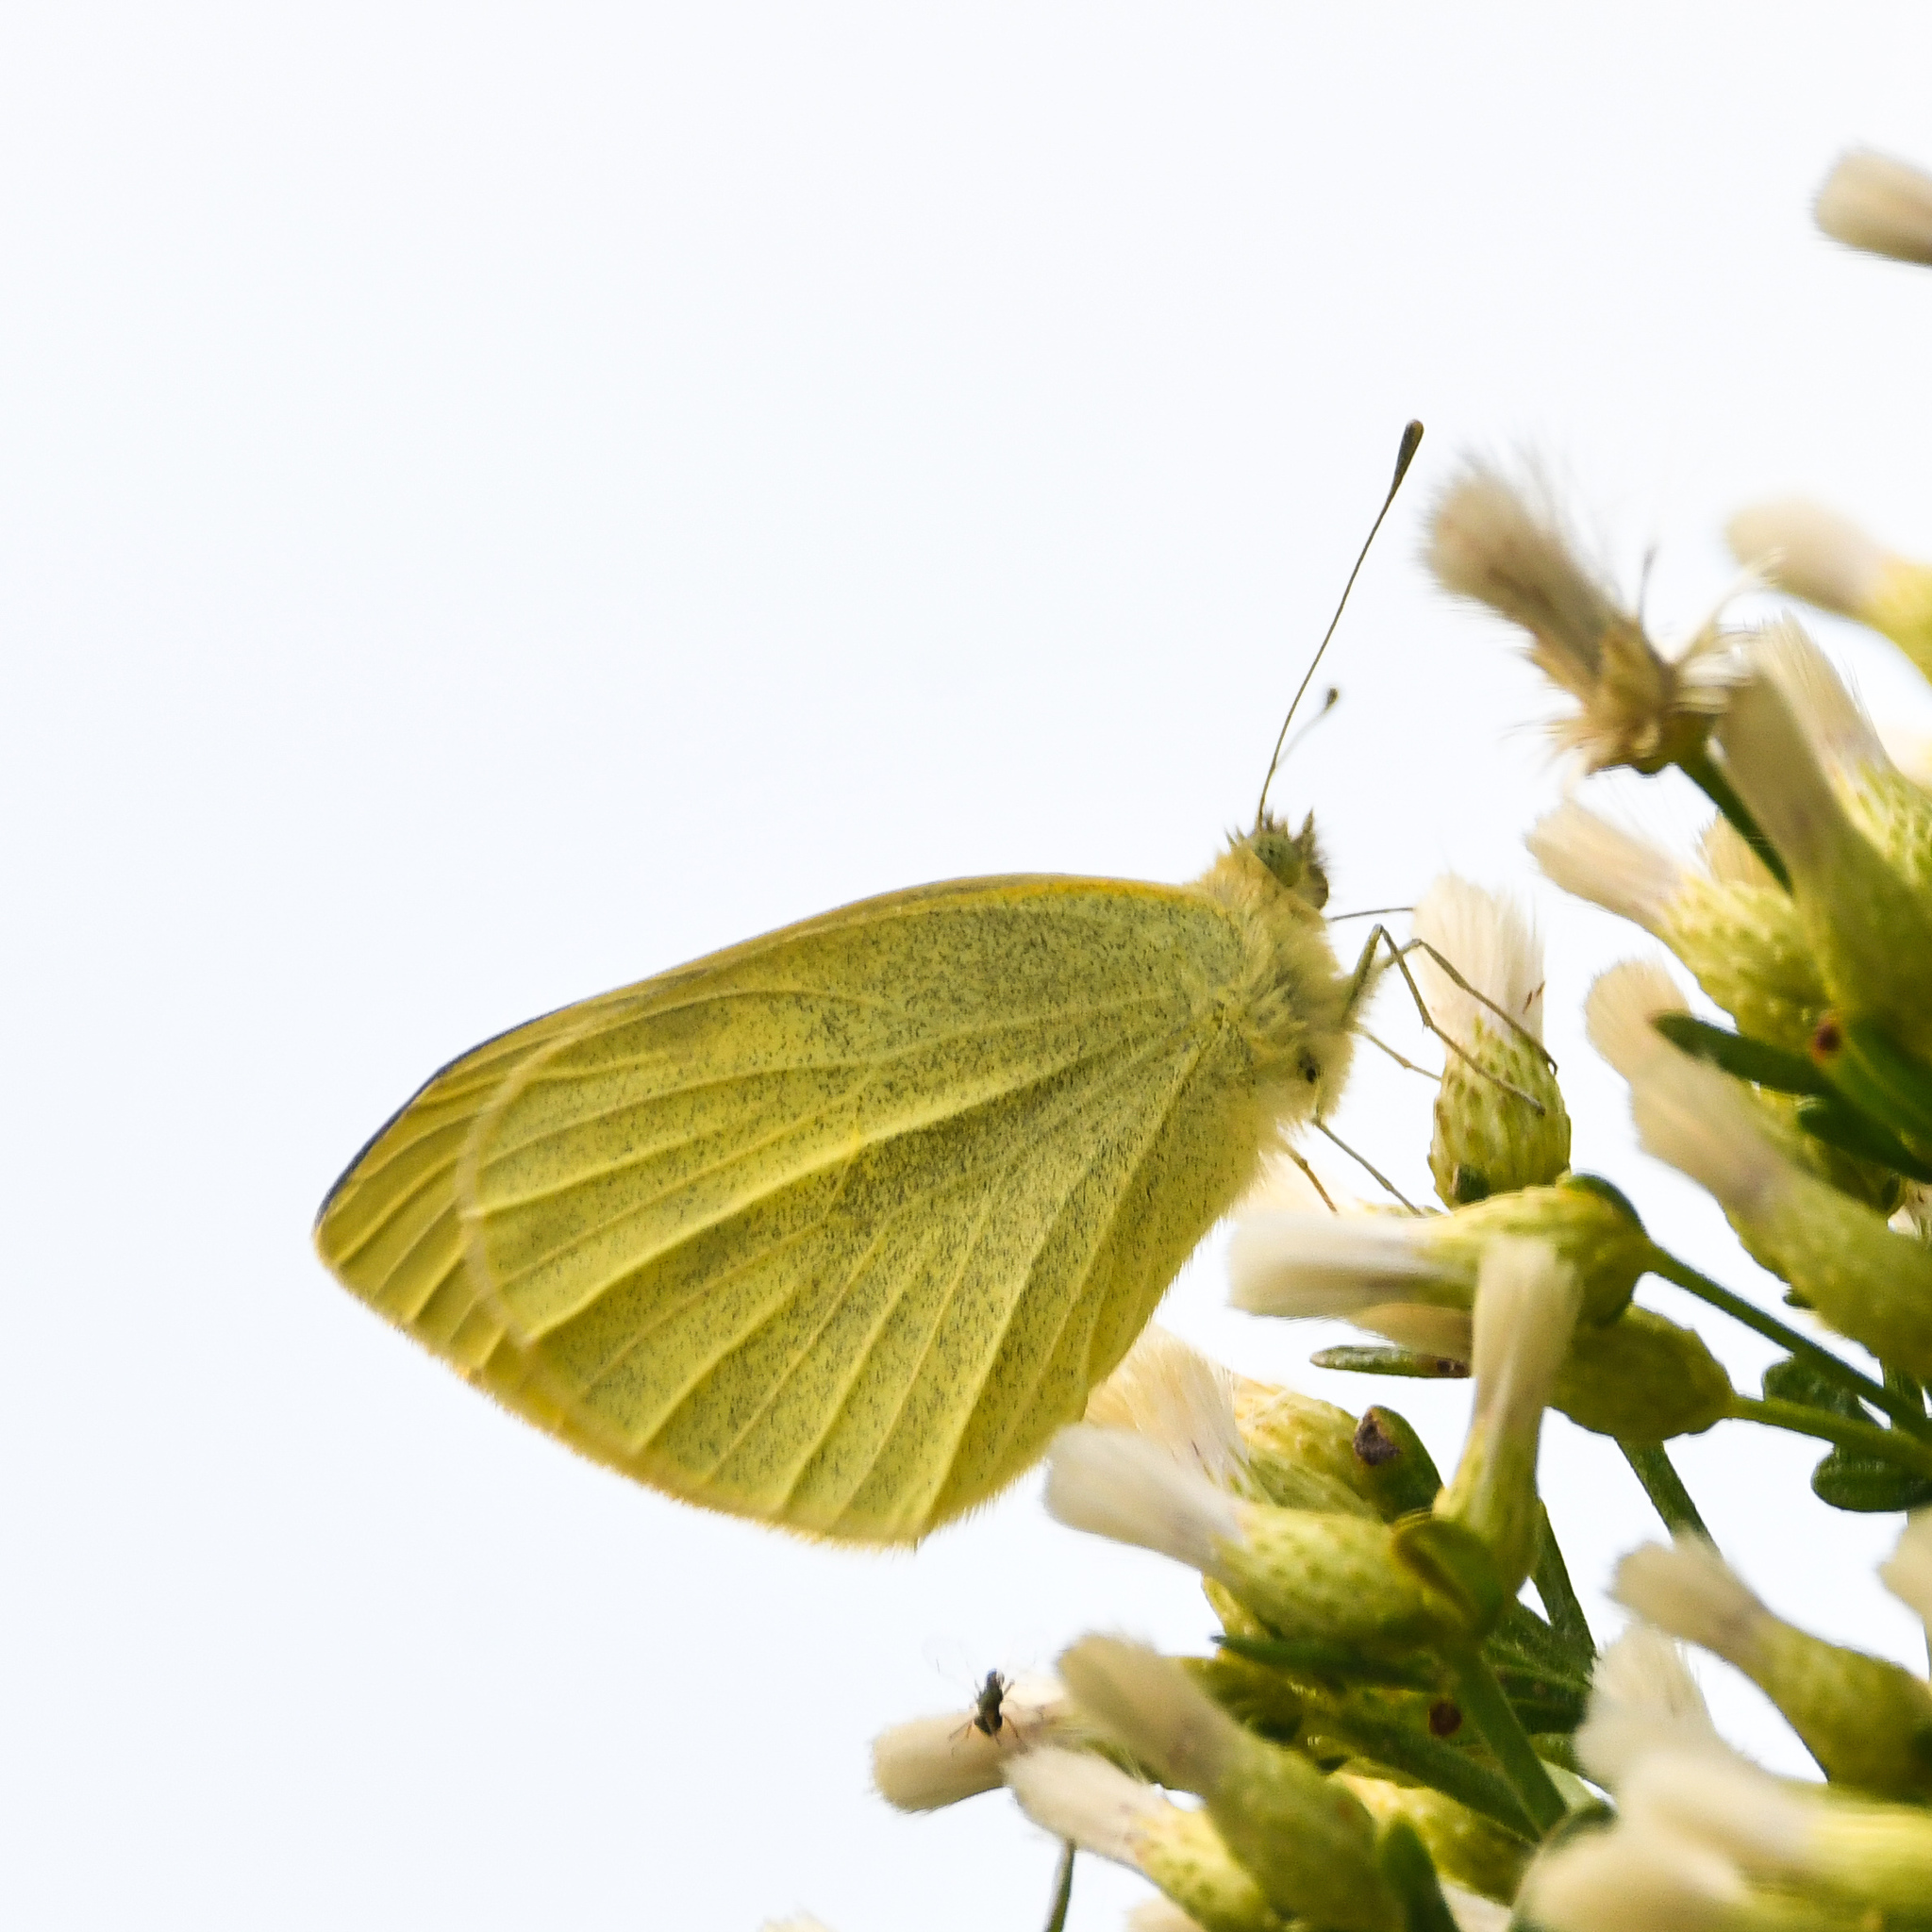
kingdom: Animalia
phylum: Arthropoda
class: Insecta
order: Lepidoptera
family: Pieridae
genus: Pieris
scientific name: Pieris rapae
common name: Small white
